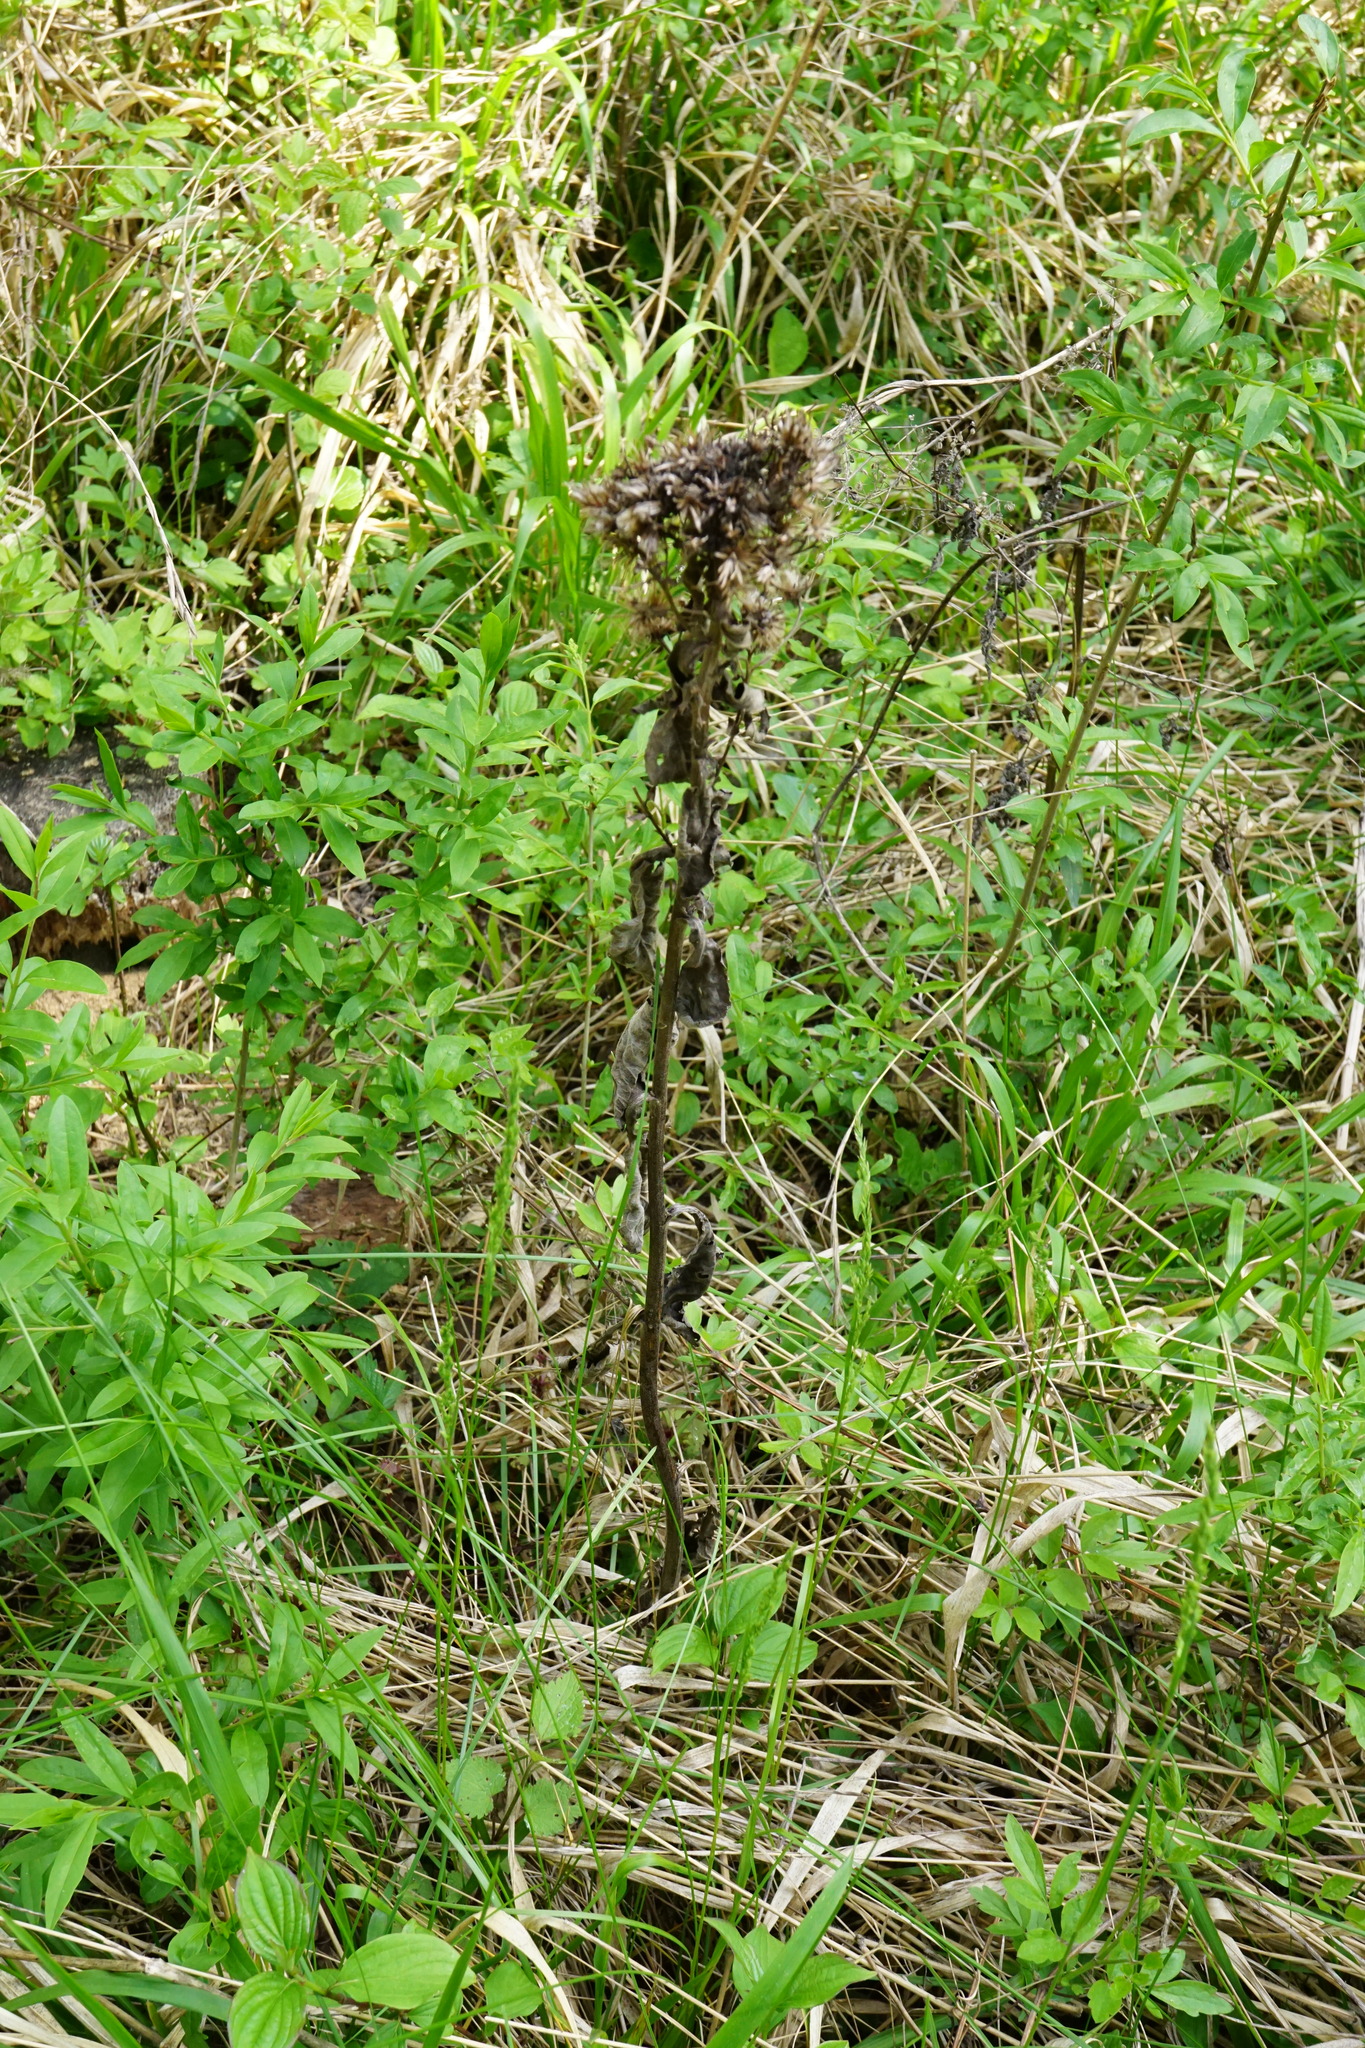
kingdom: Plantae
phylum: Tracheophyta
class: Magnoliopsida
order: Asterales
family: Asteraceae
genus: Pentanema
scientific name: Pentanema squarrosum
